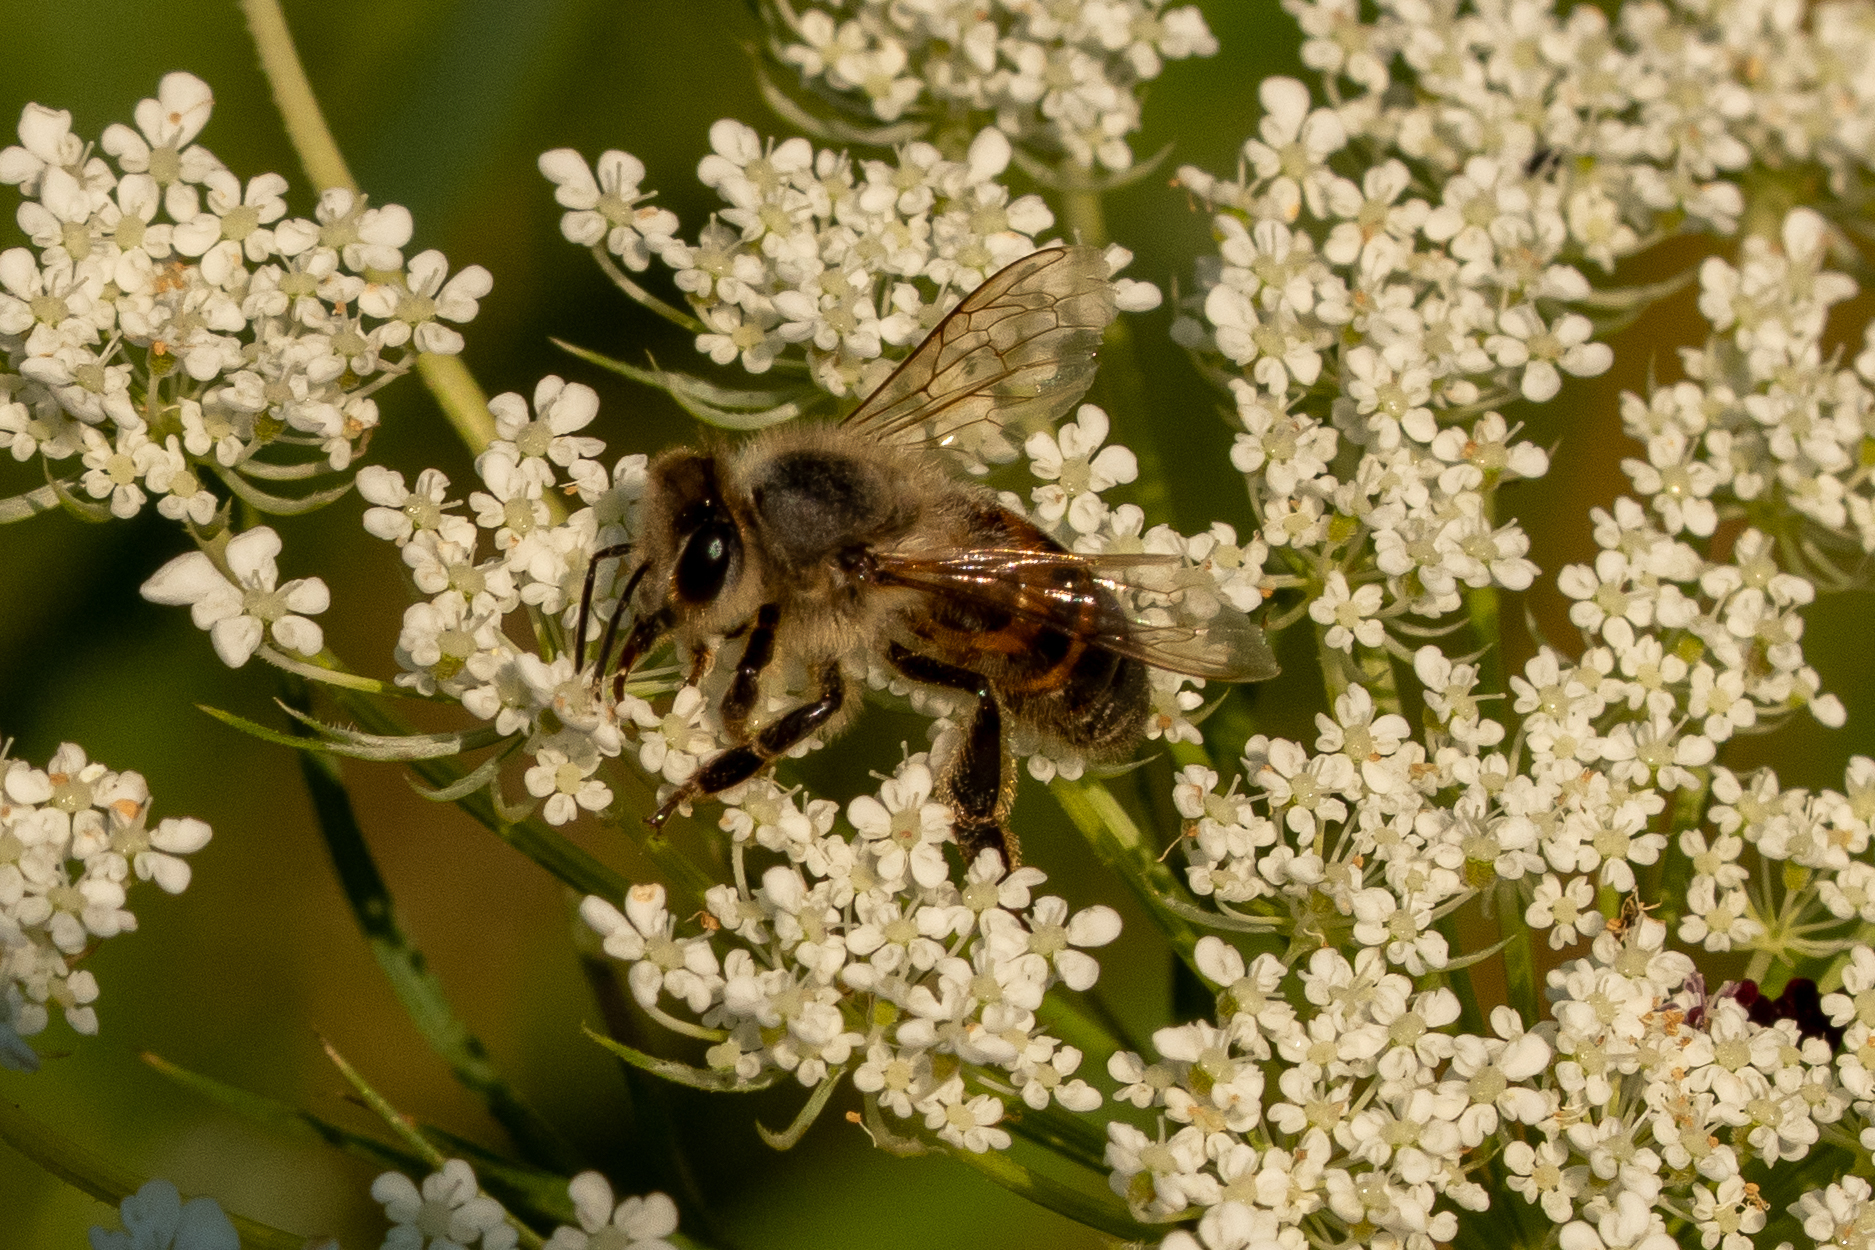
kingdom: Animalia
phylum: Arthropoda
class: Insecta
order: Hymenoptera
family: Apidae
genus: Apis
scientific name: Apis mellifera
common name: Honey bee
